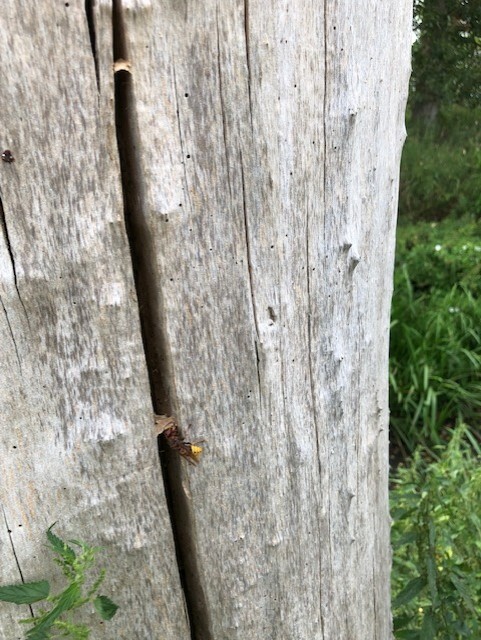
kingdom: Animalia
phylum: Arthropoda
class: Insecta
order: Hymenoptera
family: Vespidae
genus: Vespa
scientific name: Vespa crabro
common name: Hornet
